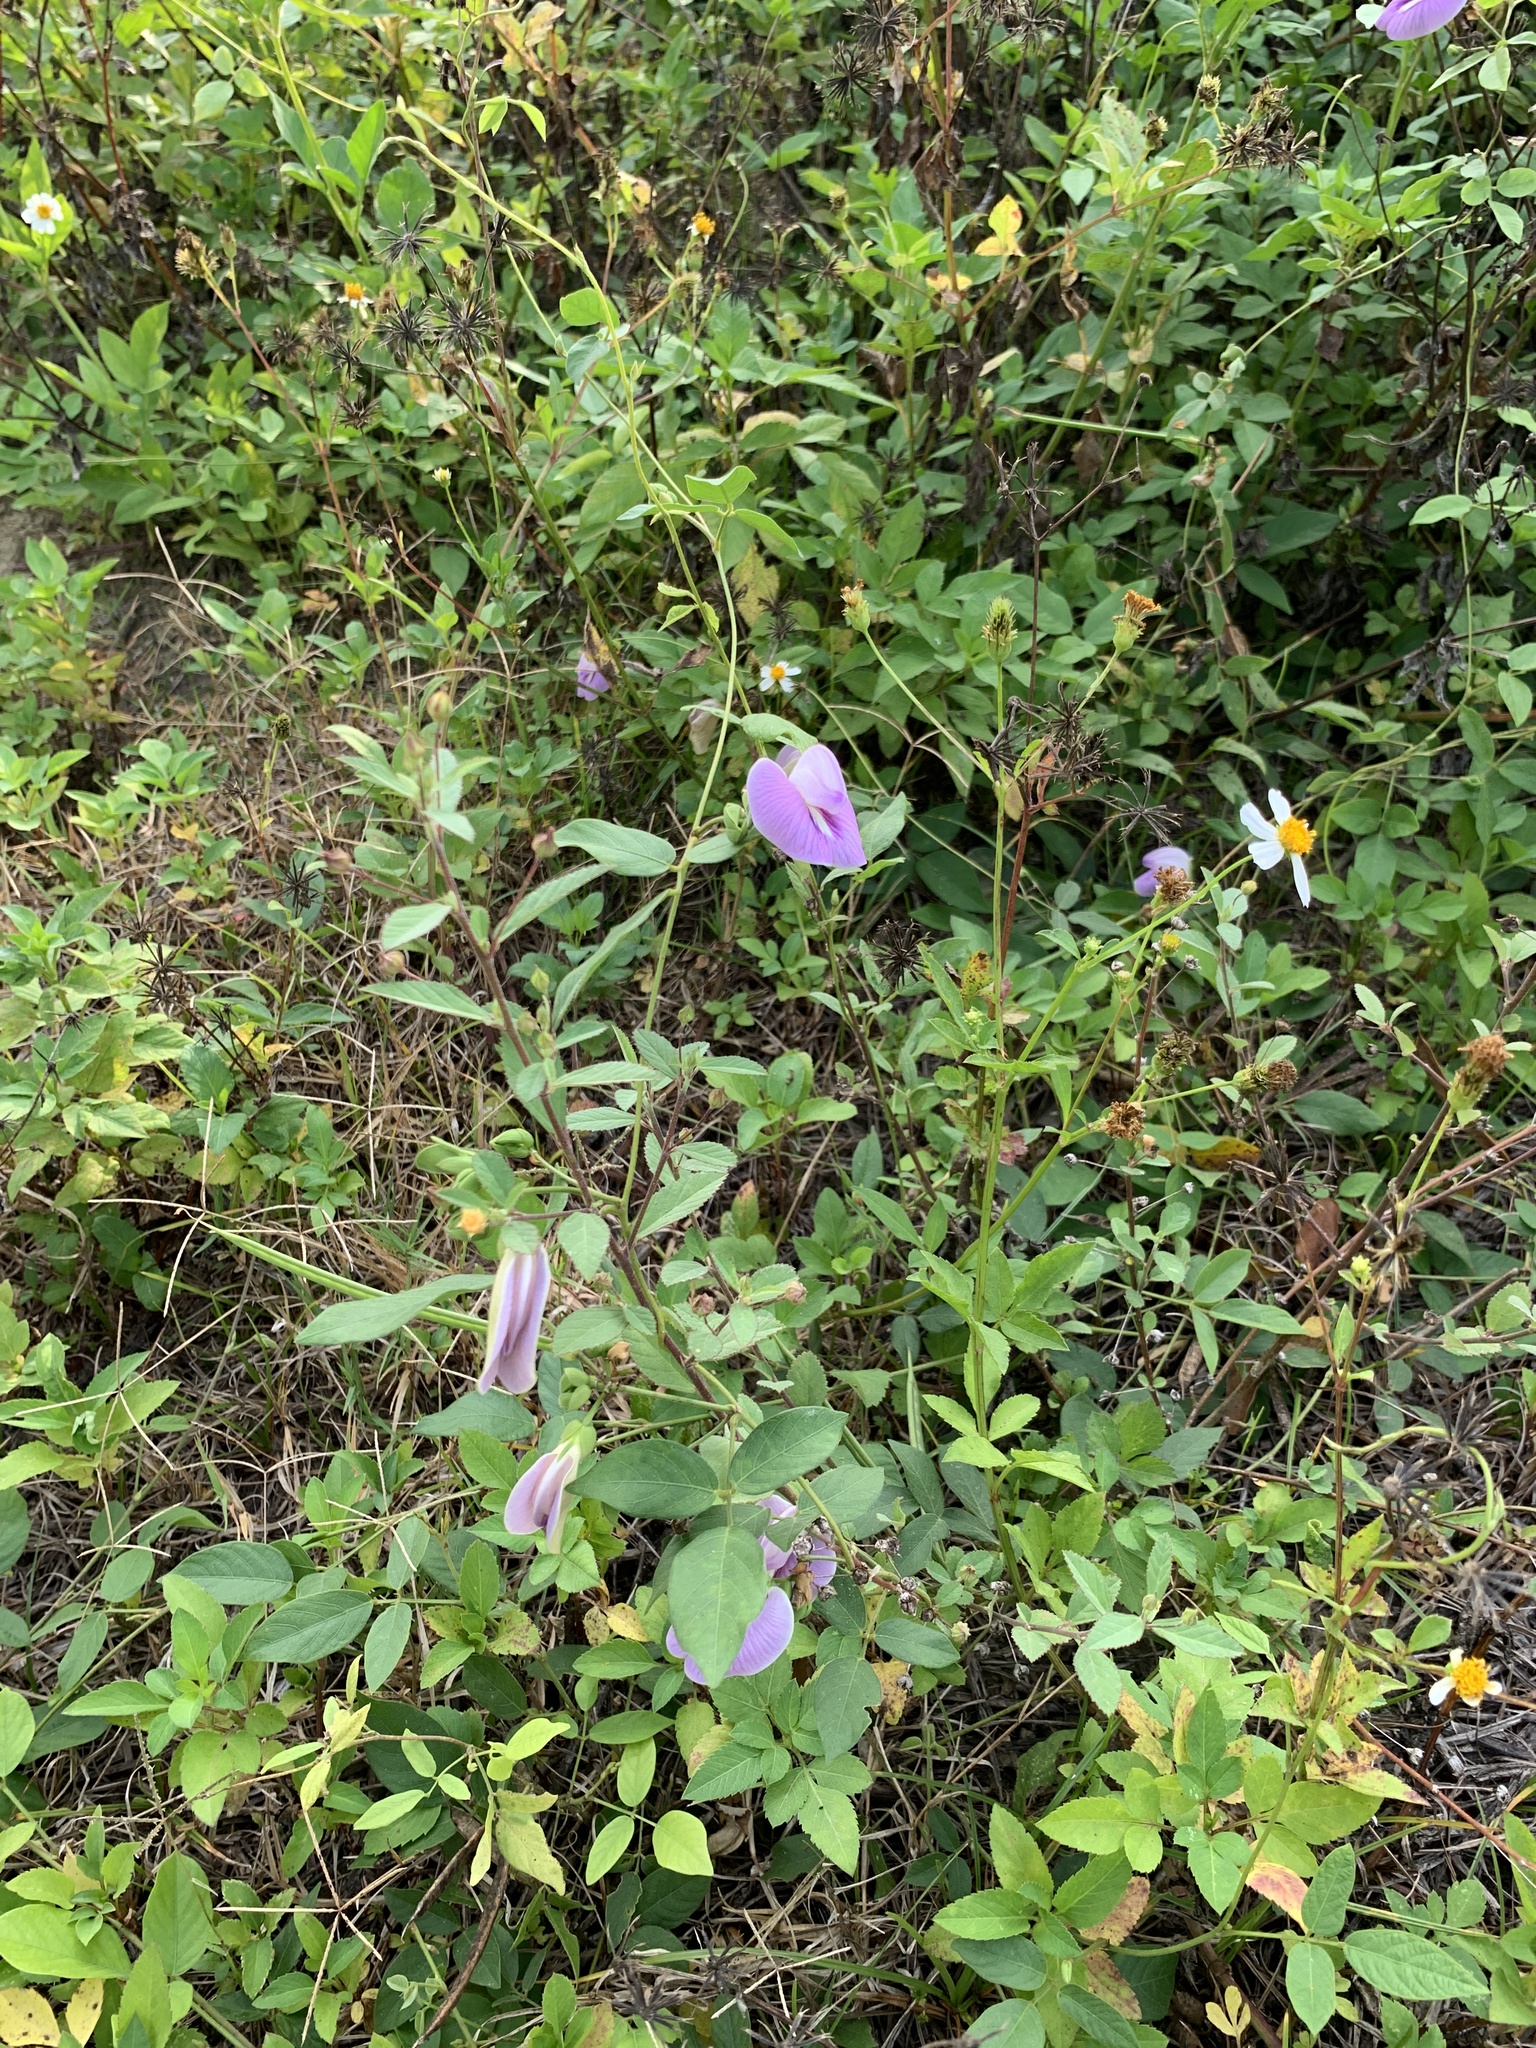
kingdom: Plantae
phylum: Tracheophyta
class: Magnoliopsida
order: Fabales
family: Fabaceae
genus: Centrosema
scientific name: Centrosema pubescens
